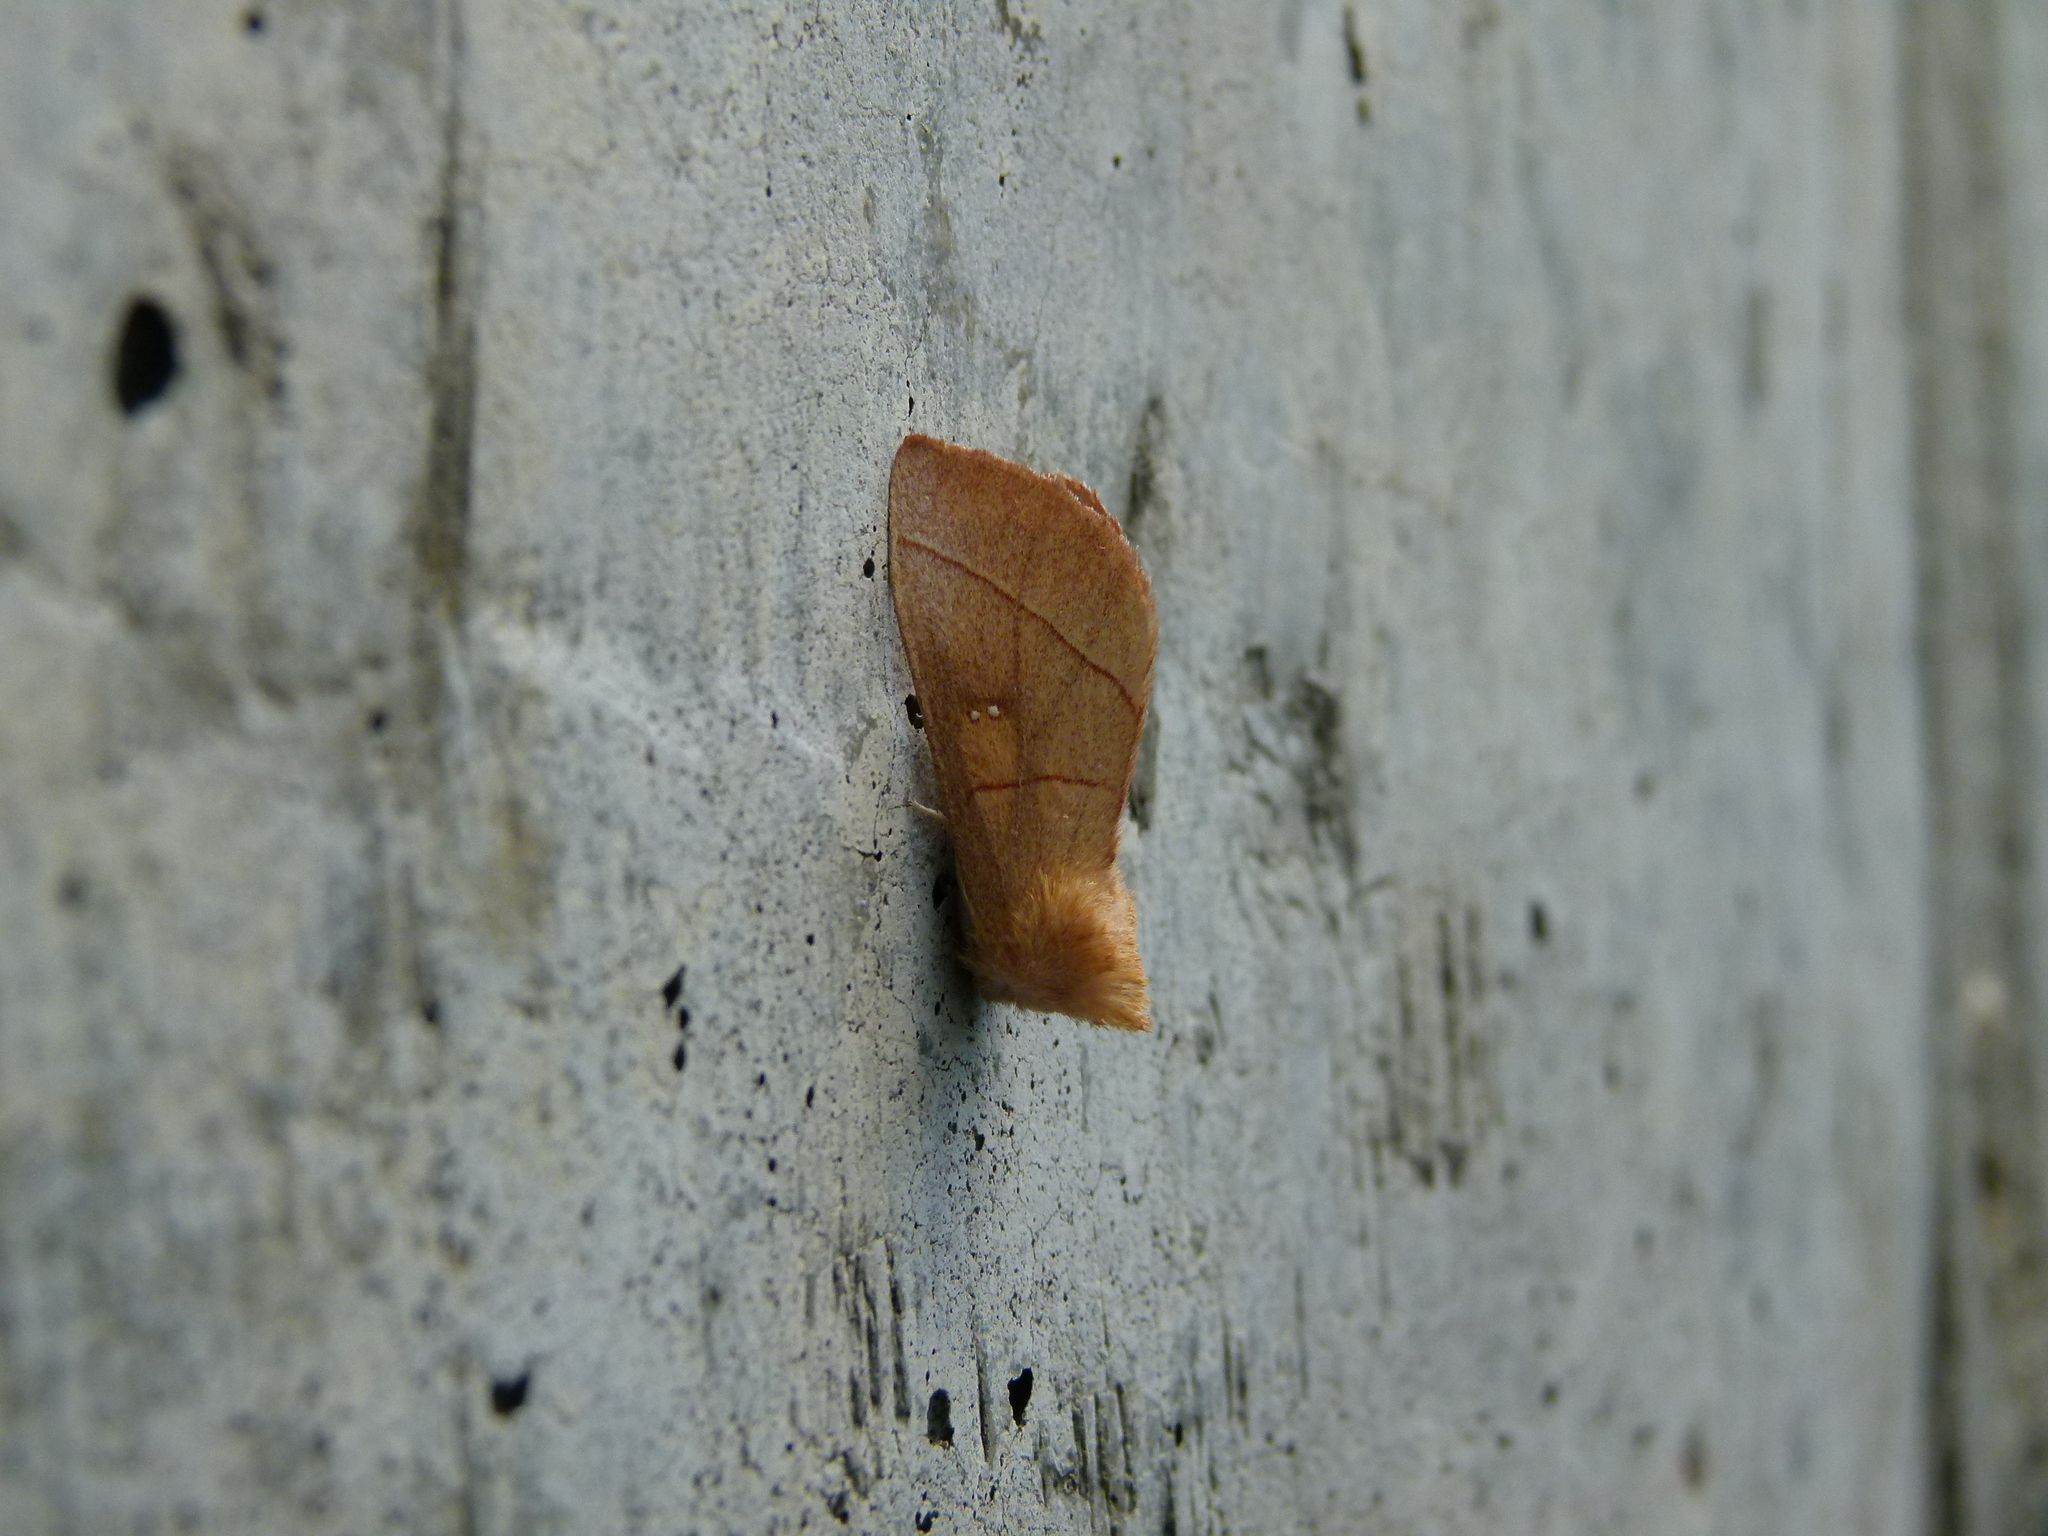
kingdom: Animalia
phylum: Arthropoda
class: Insecta
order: Lepidoptera
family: Notodontidae
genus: Nadata
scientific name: Nadata gibbosa
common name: White-dotted prominent
